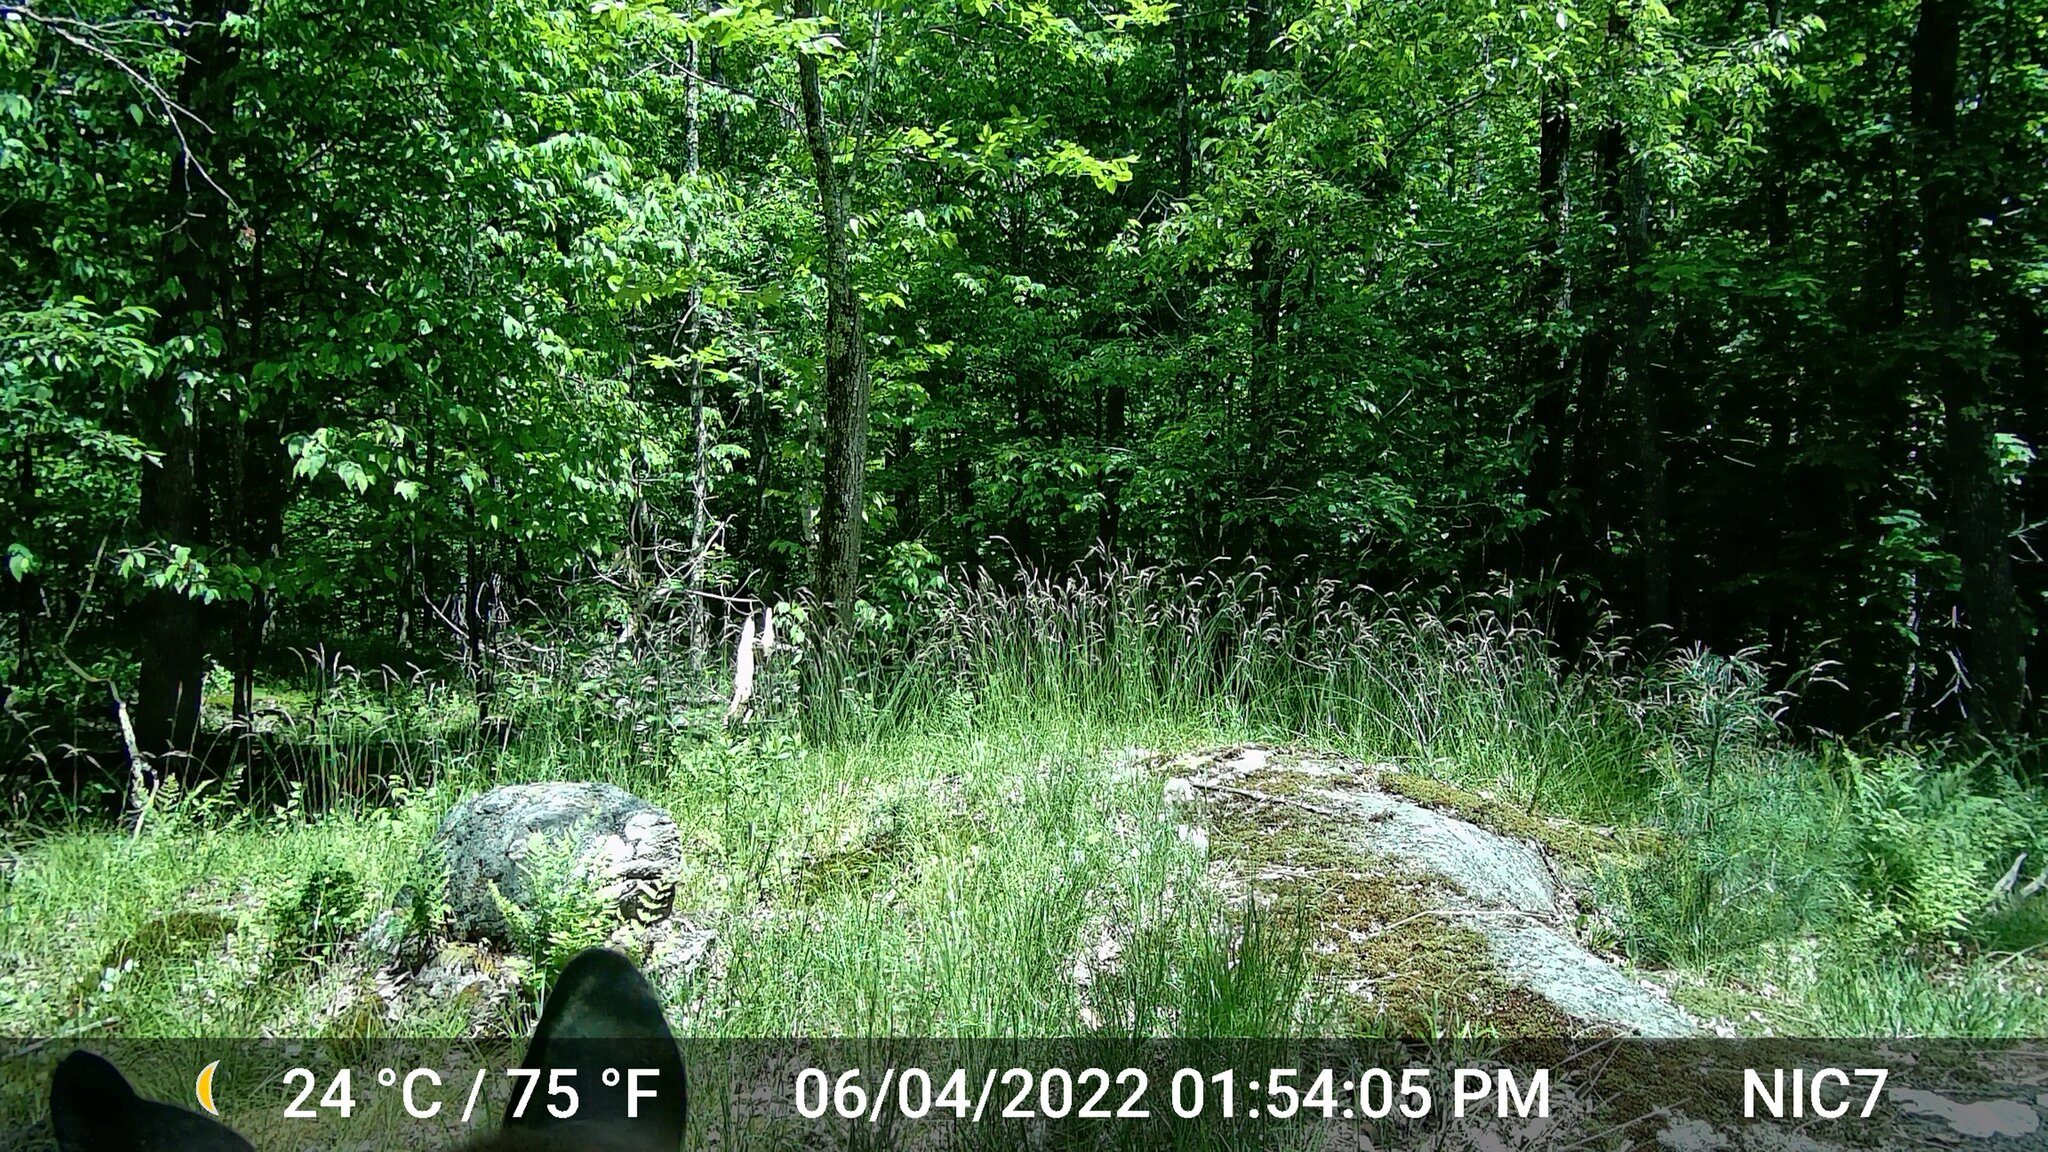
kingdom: Animalia
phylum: Chordata
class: Mammalia
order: Artiodactyla
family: Cervidae
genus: Odocoileus
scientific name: Odocoileus virginianus
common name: White-tailed deer
